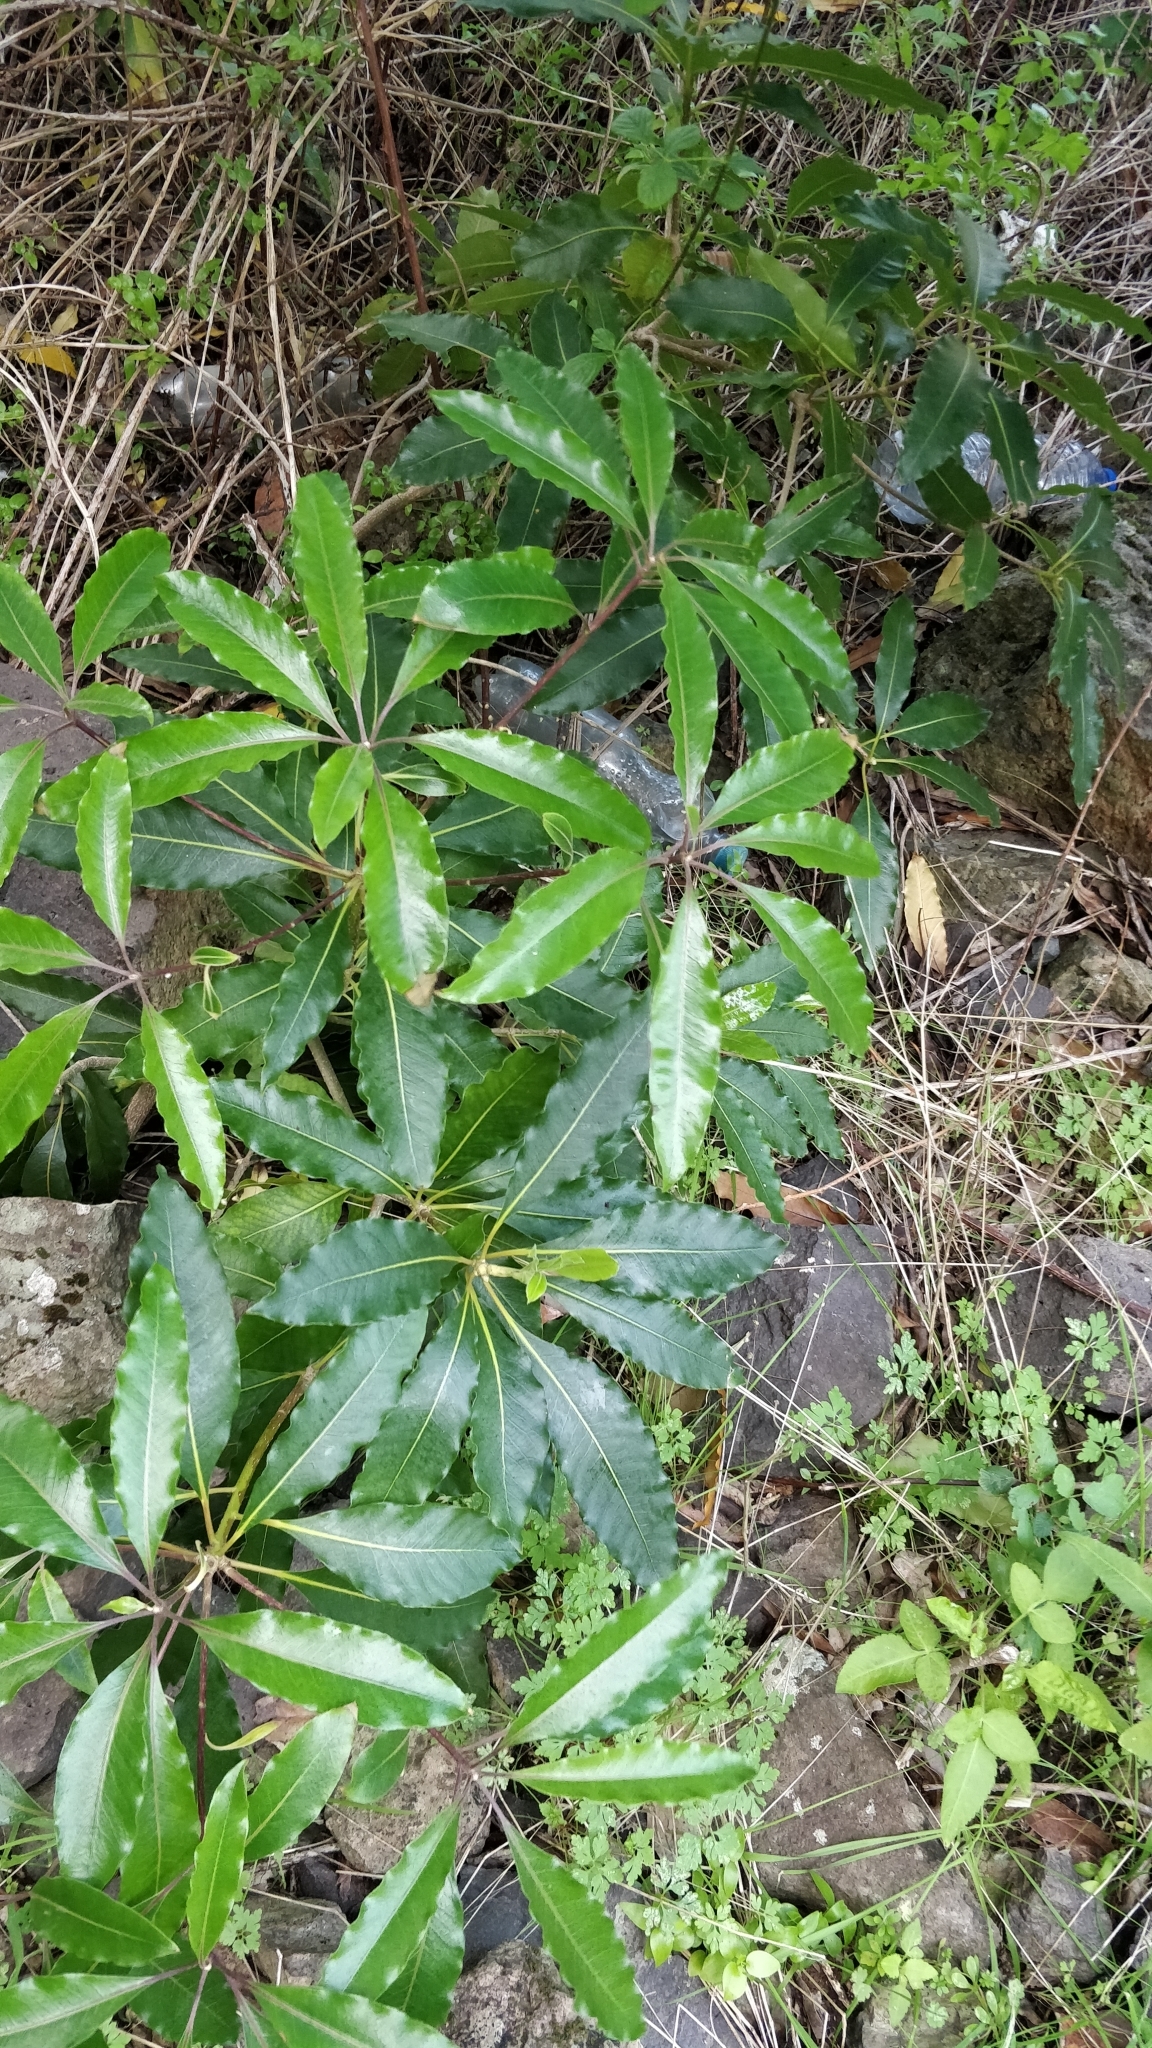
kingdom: Plantae
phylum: Tracheophyta
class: Magnoliopsida
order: Apiales
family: Pittosporaceae
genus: Pittosporum
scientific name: Pittosporum undulatum
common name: Australian cheesewood
